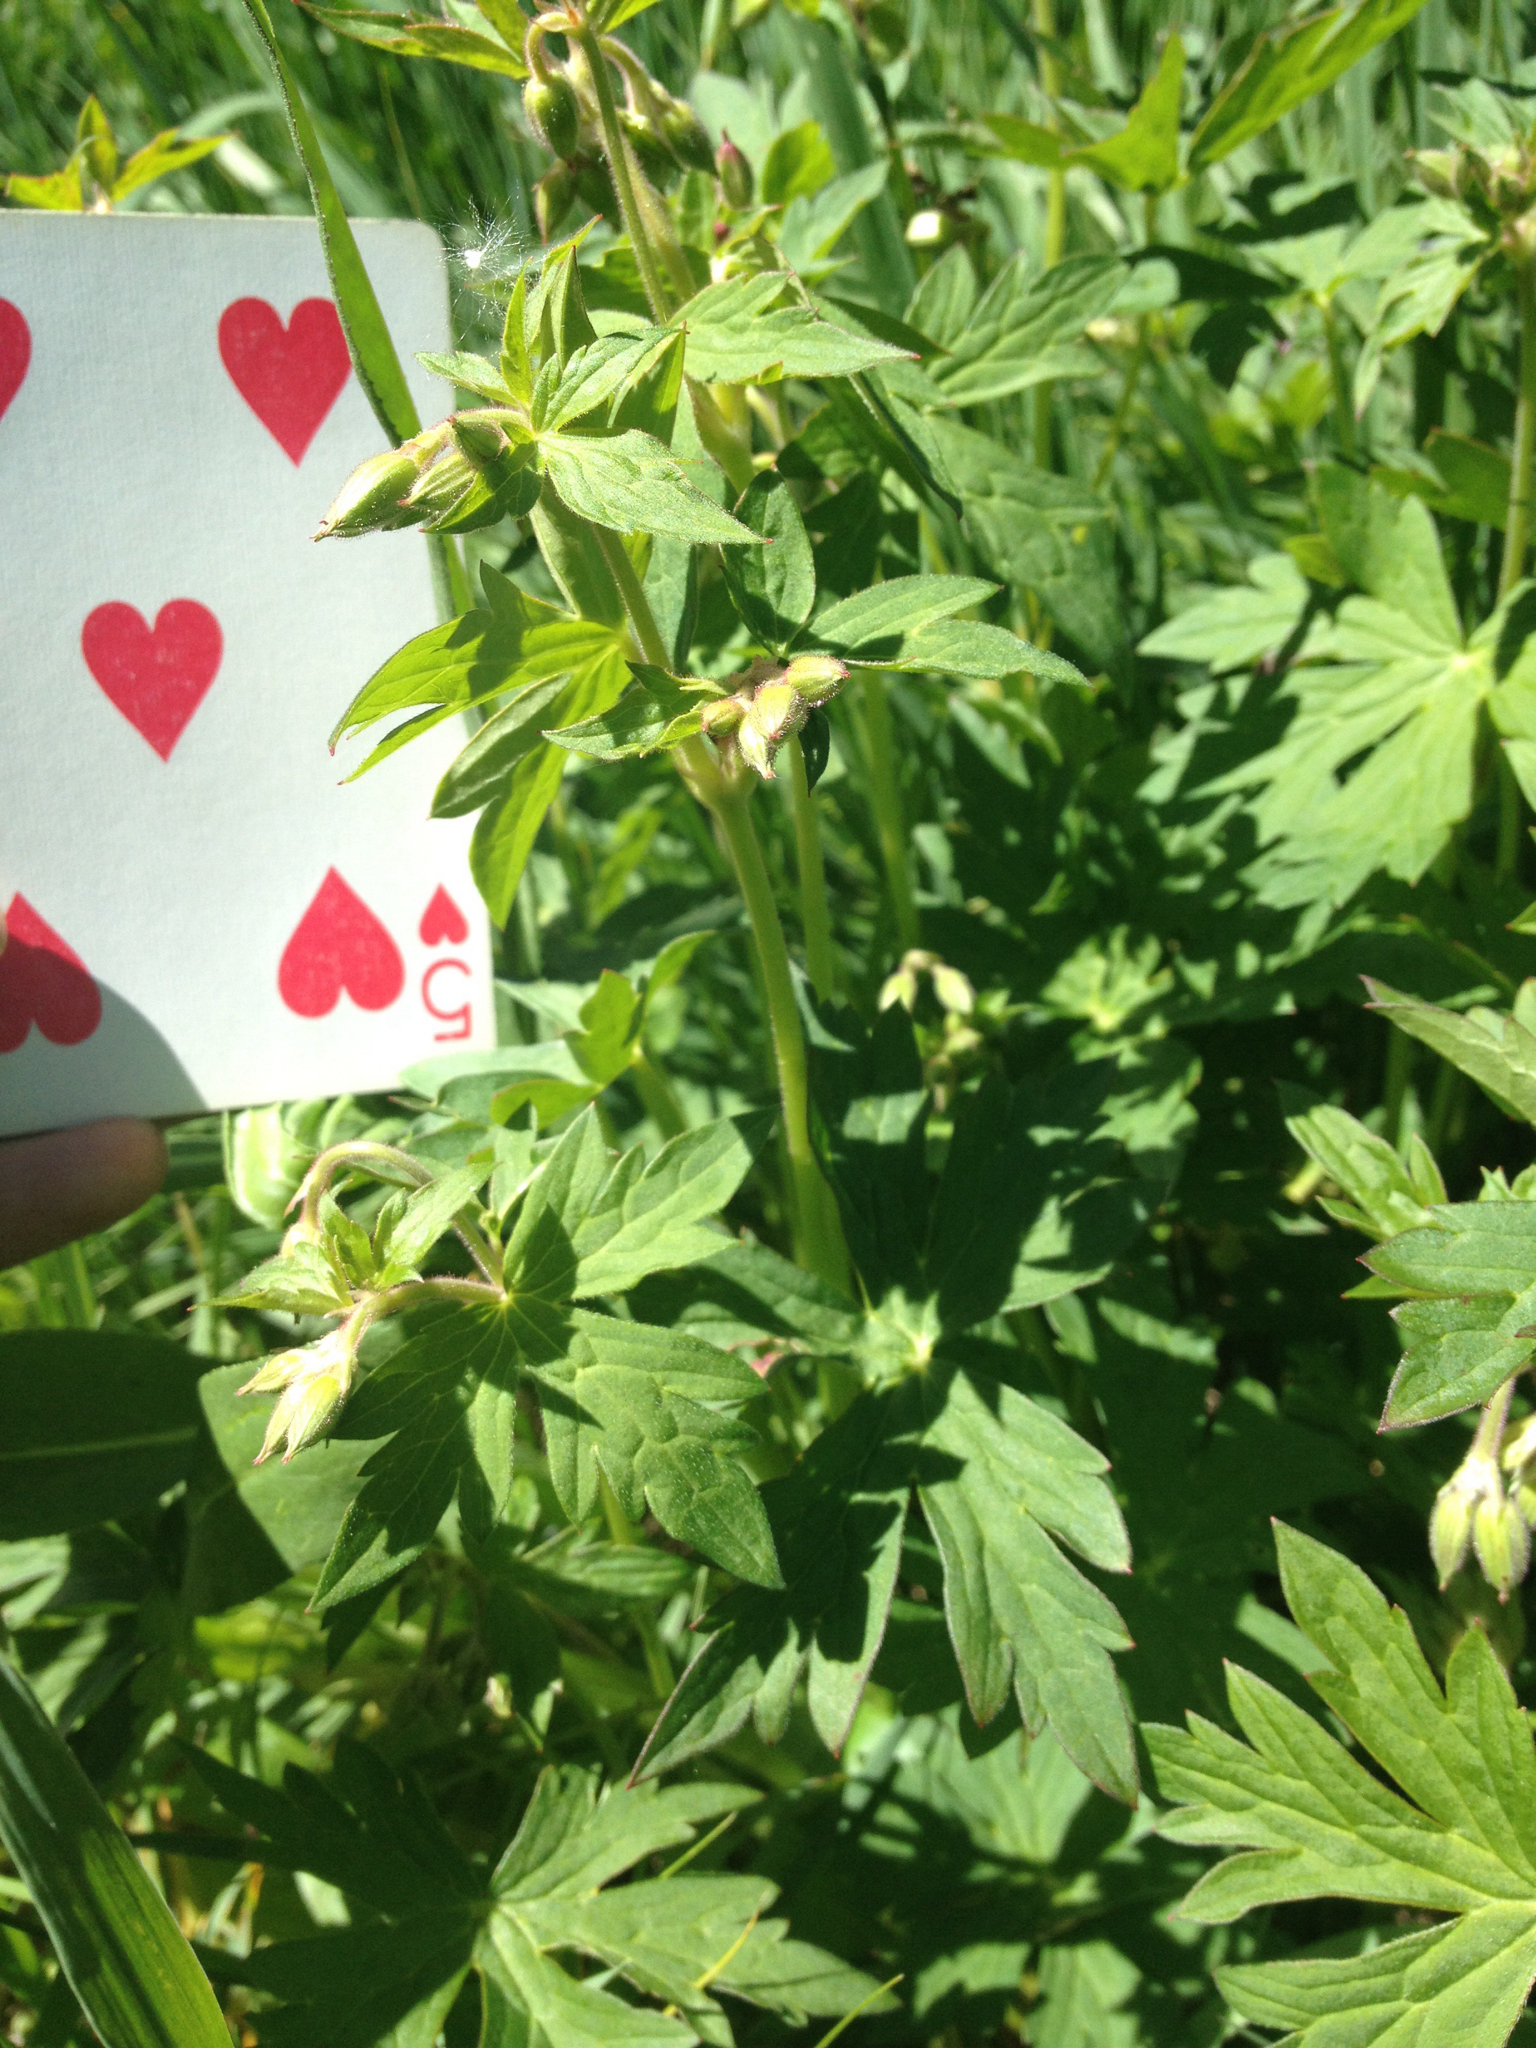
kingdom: Plantae
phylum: Tracheophyta
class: Magnoliopsida
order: Geraniales
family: Geraniaceae
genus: Geranium
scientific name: Geranium richardsonii
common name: Richardson's crane's-bill
